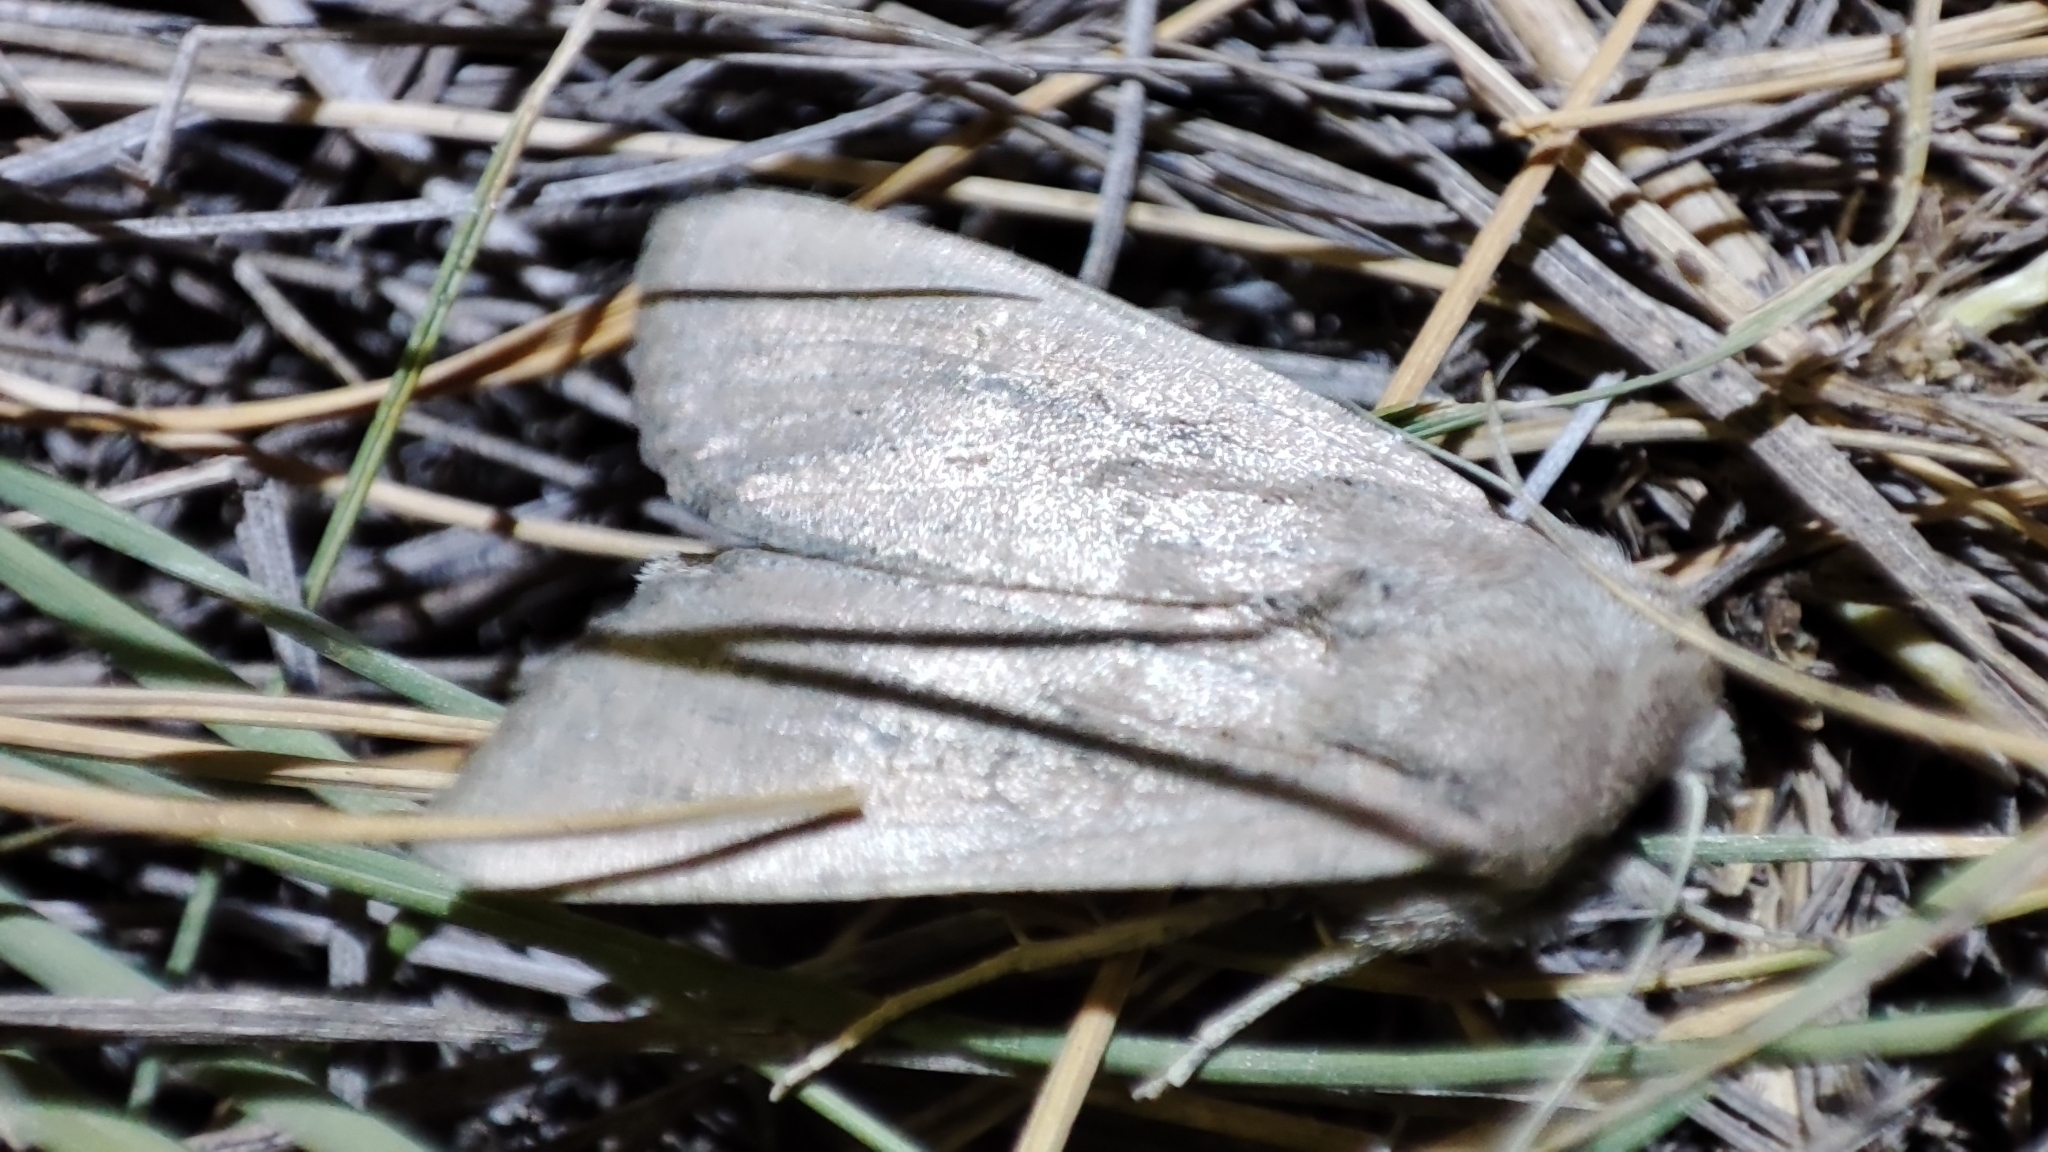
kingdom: Animalia
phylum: Arthropoda
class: Insecta
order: Lepidoptera
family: Noctuidae
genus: Fabula
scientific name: Fabula zollikoferi
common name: Scarce arches
